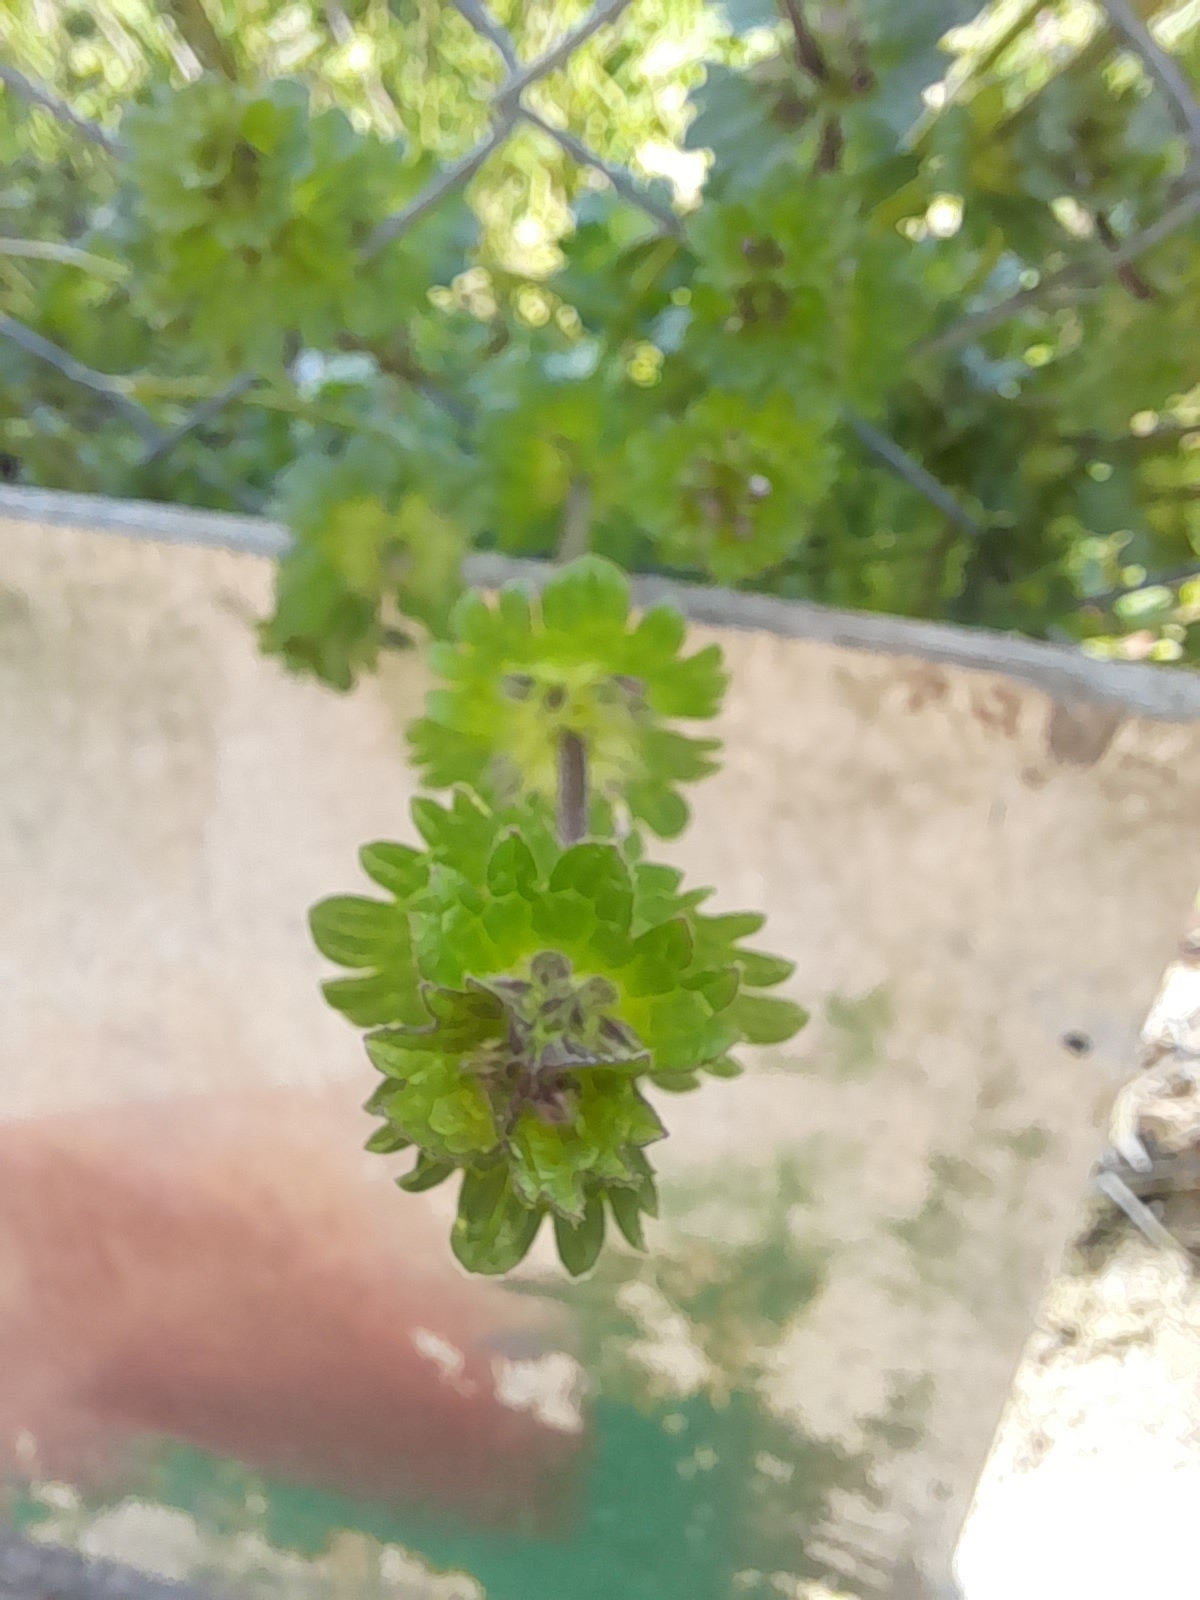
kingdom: Plantae
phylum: Tracheophyta
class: Magnoliopsida
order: Lamiales
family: Lamiaceae
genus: Lamium
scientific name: Lamium amplexicaule
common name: Henbit dead-nettle
